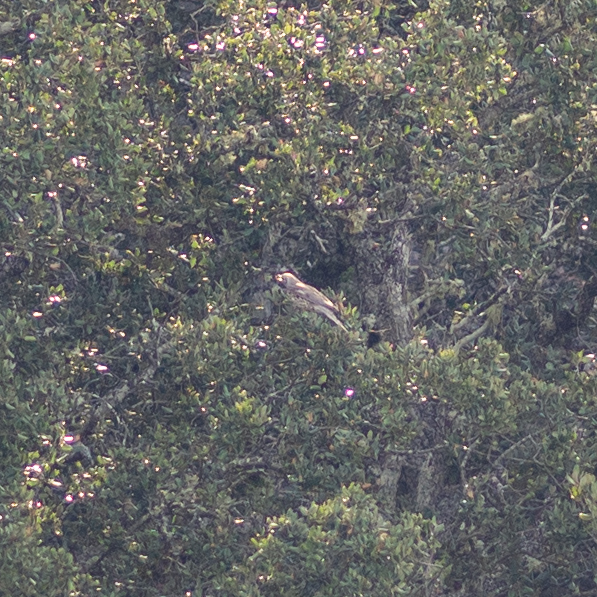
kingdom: Animalia
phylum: Chordata
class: Aves
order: Passeriformes
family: Turdidae
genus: Turdus
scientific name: Turdus viscivorus
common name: Mistle thrush
